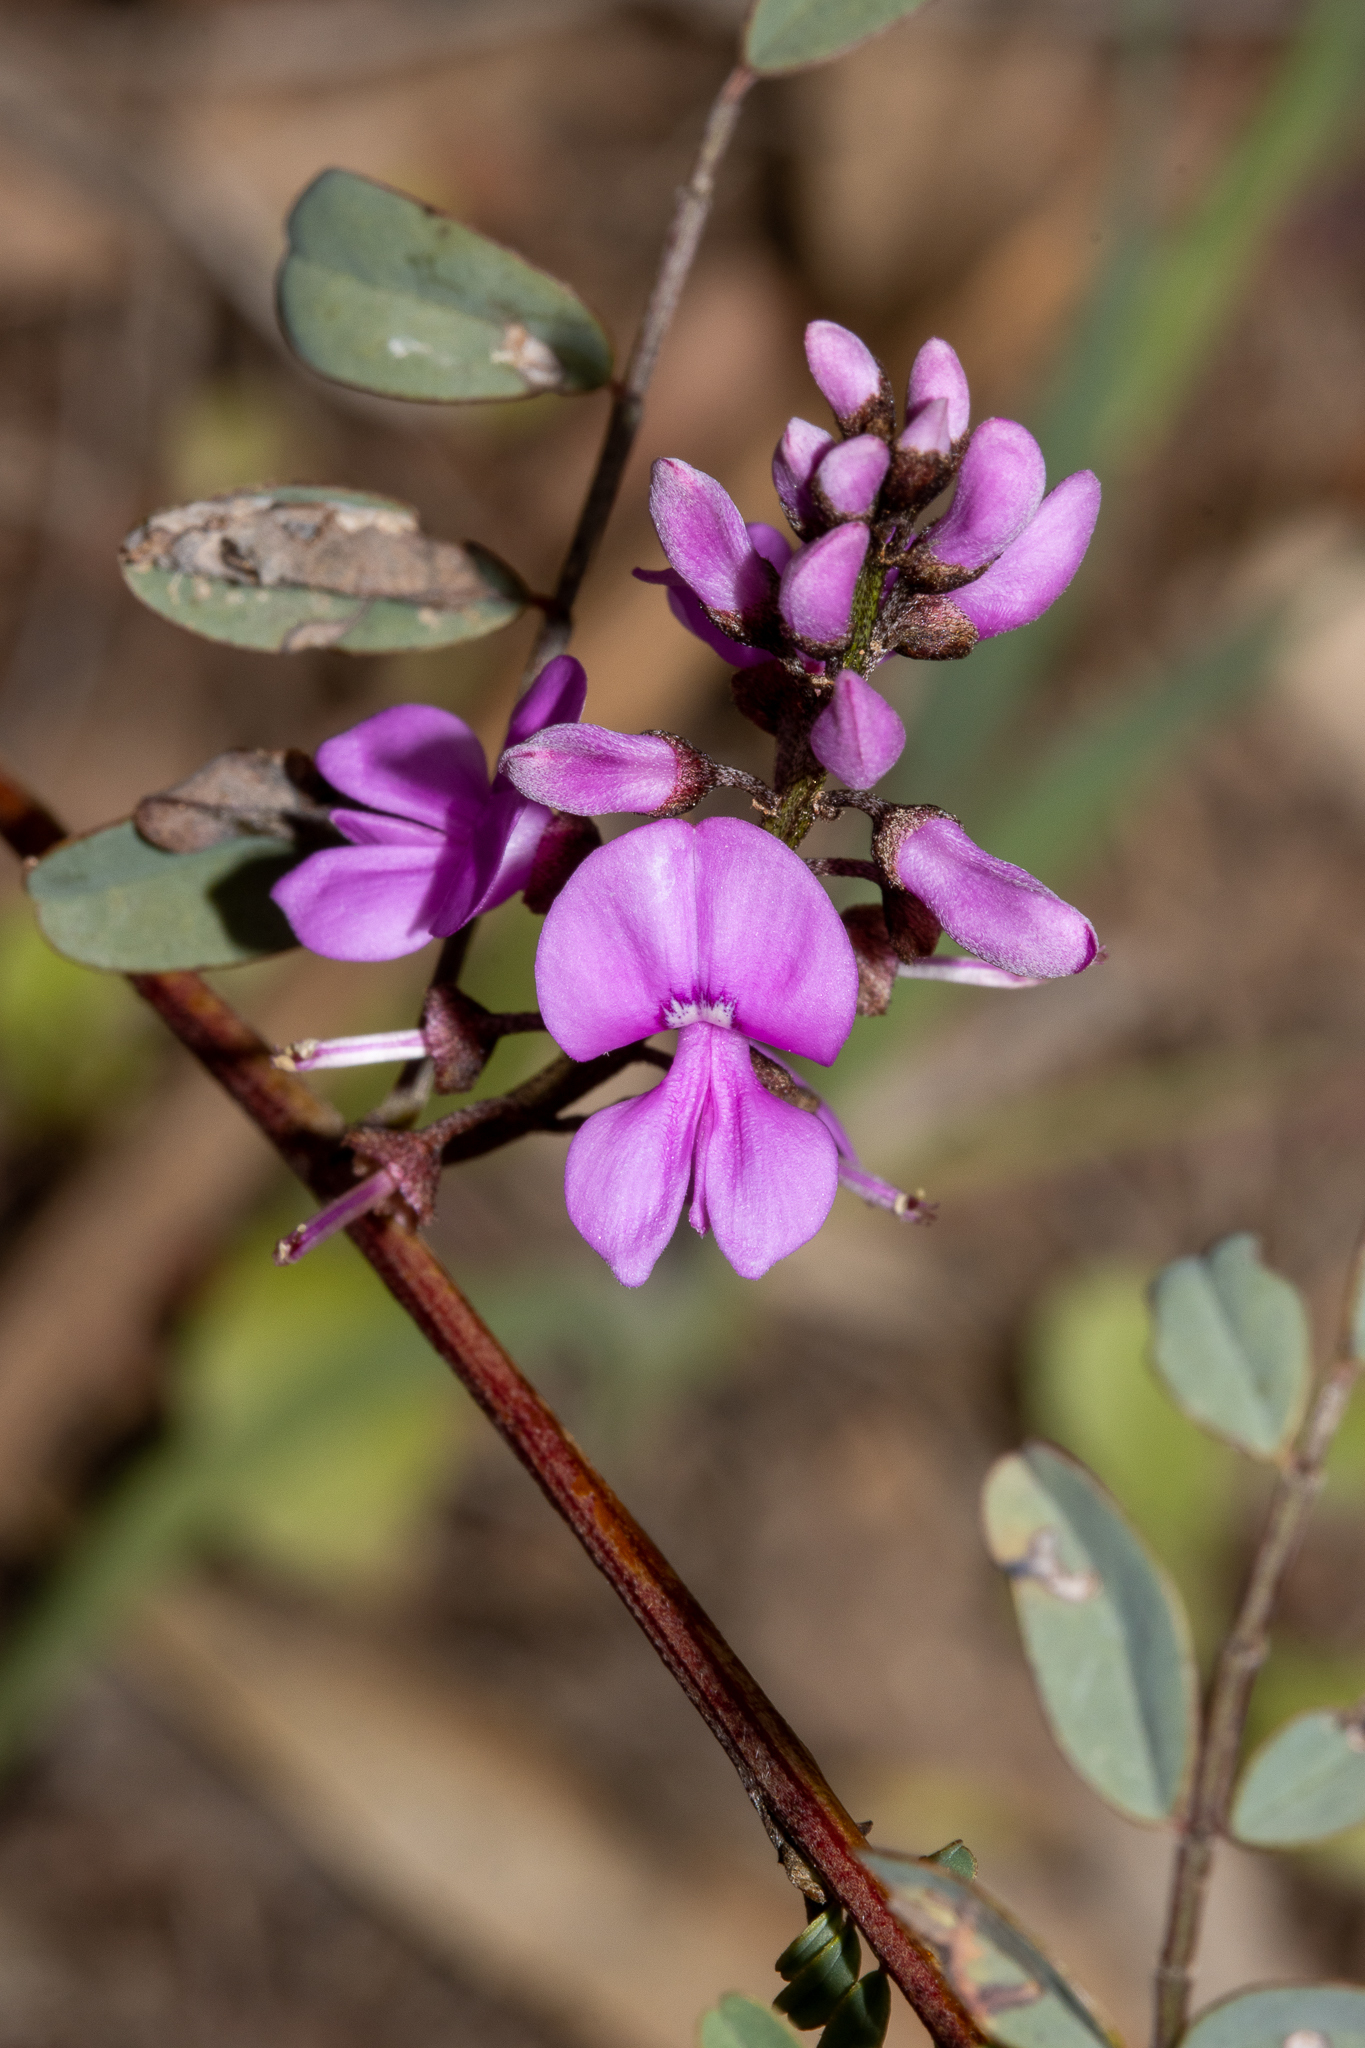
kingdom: Plantae
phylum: Tracheophyta
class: Magnoliopsida
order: Fabales
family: Fabaceae
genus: Indigofera
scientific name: Indigofera australis
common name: Australian indigo
